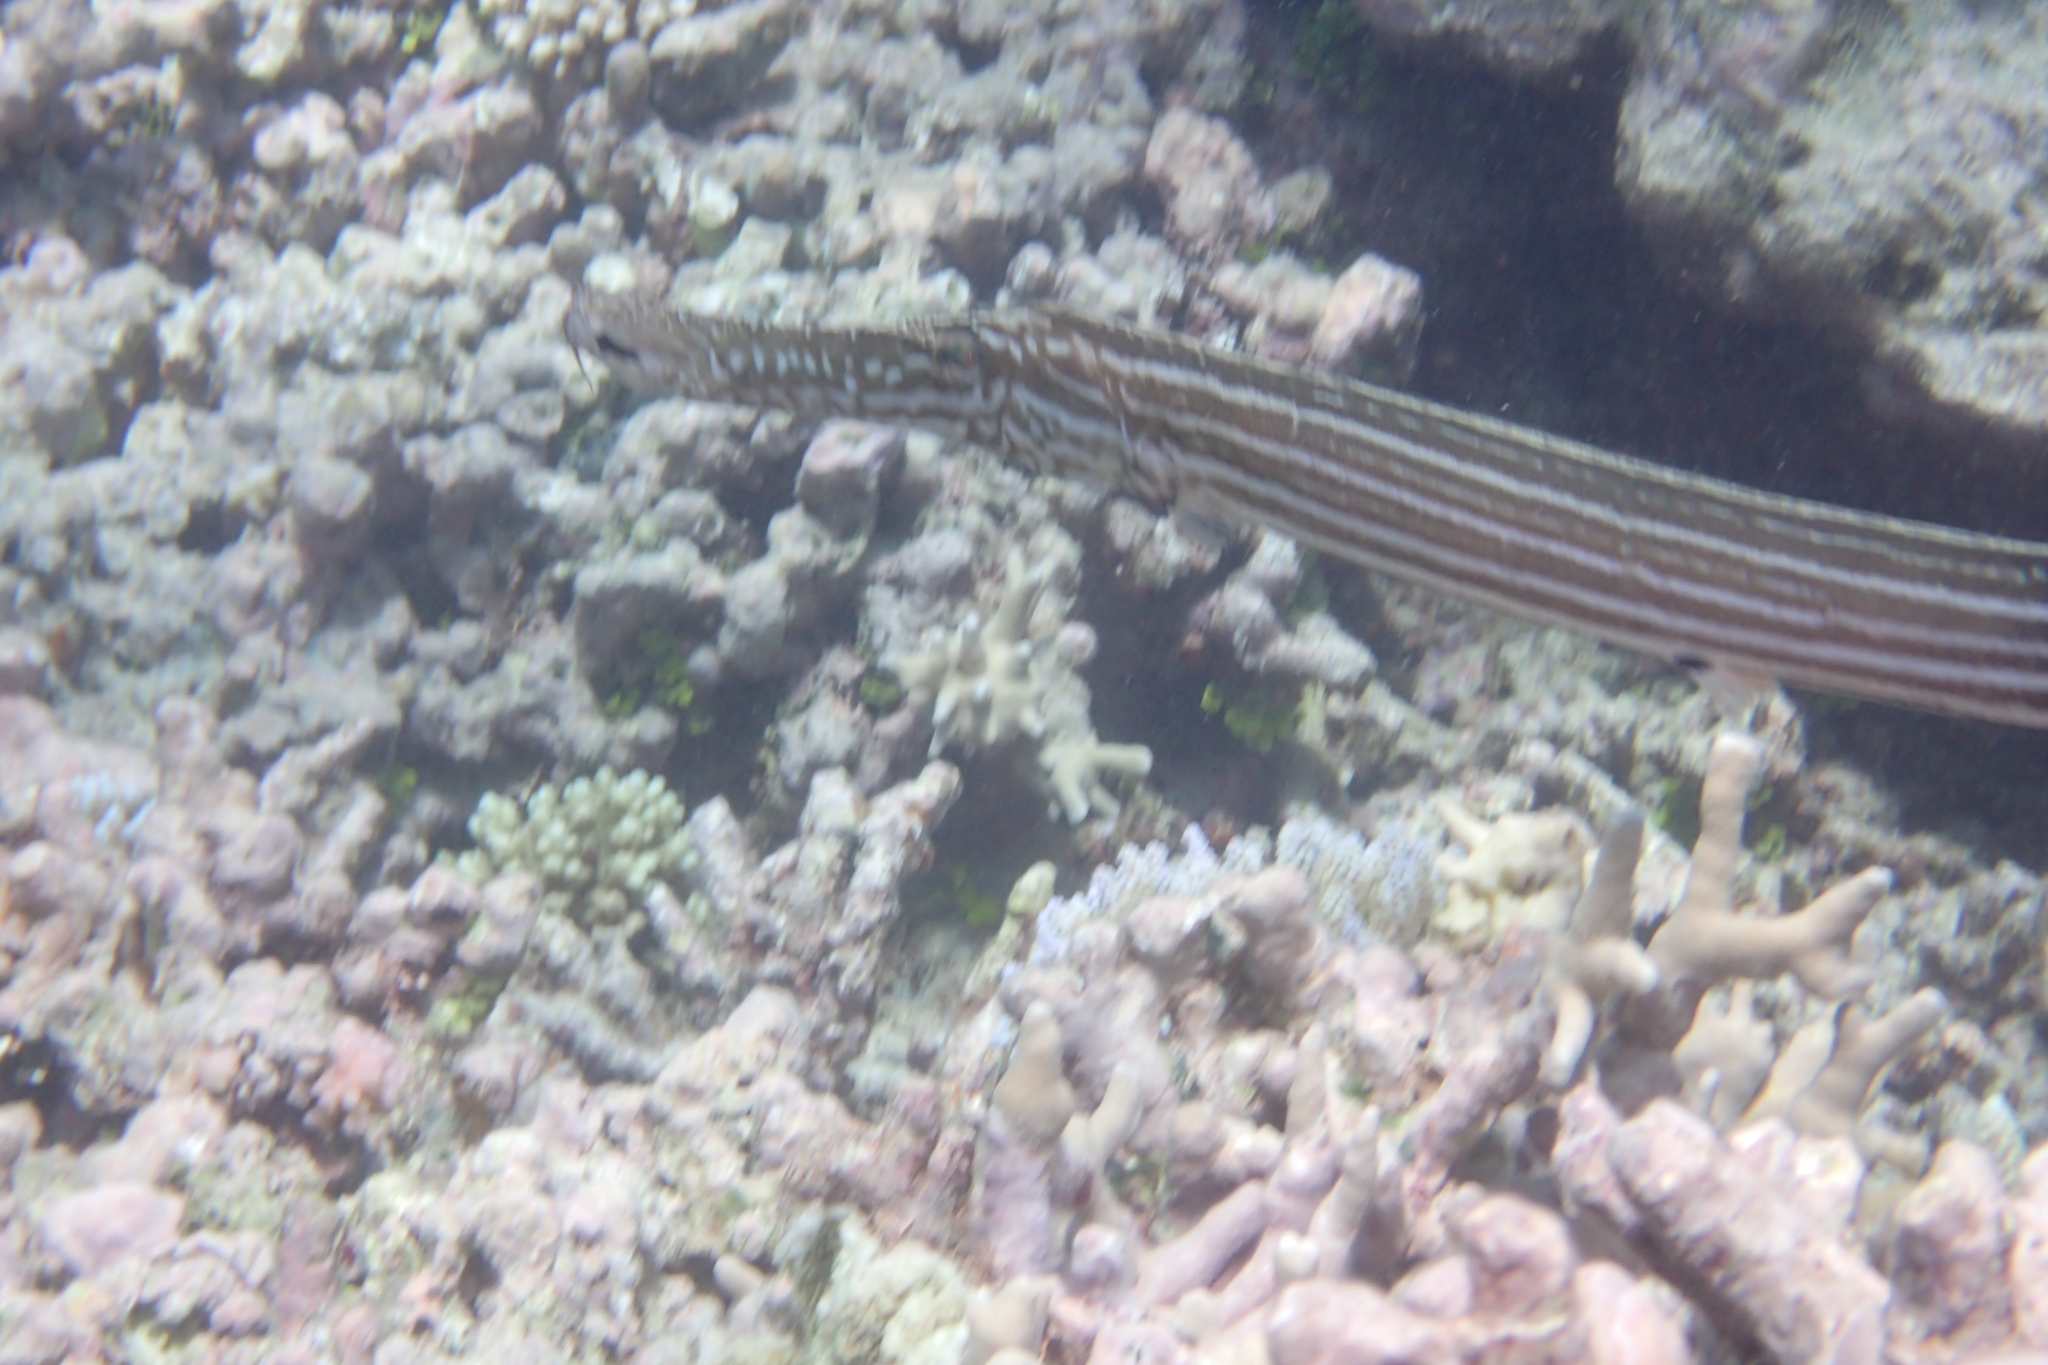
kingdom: Animalia
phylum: Chordata
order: Syngnathiformes
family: Aulostomidae
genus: Aulostomus
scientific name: Aulostomus chinensis
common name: Chinese trumpetfish
